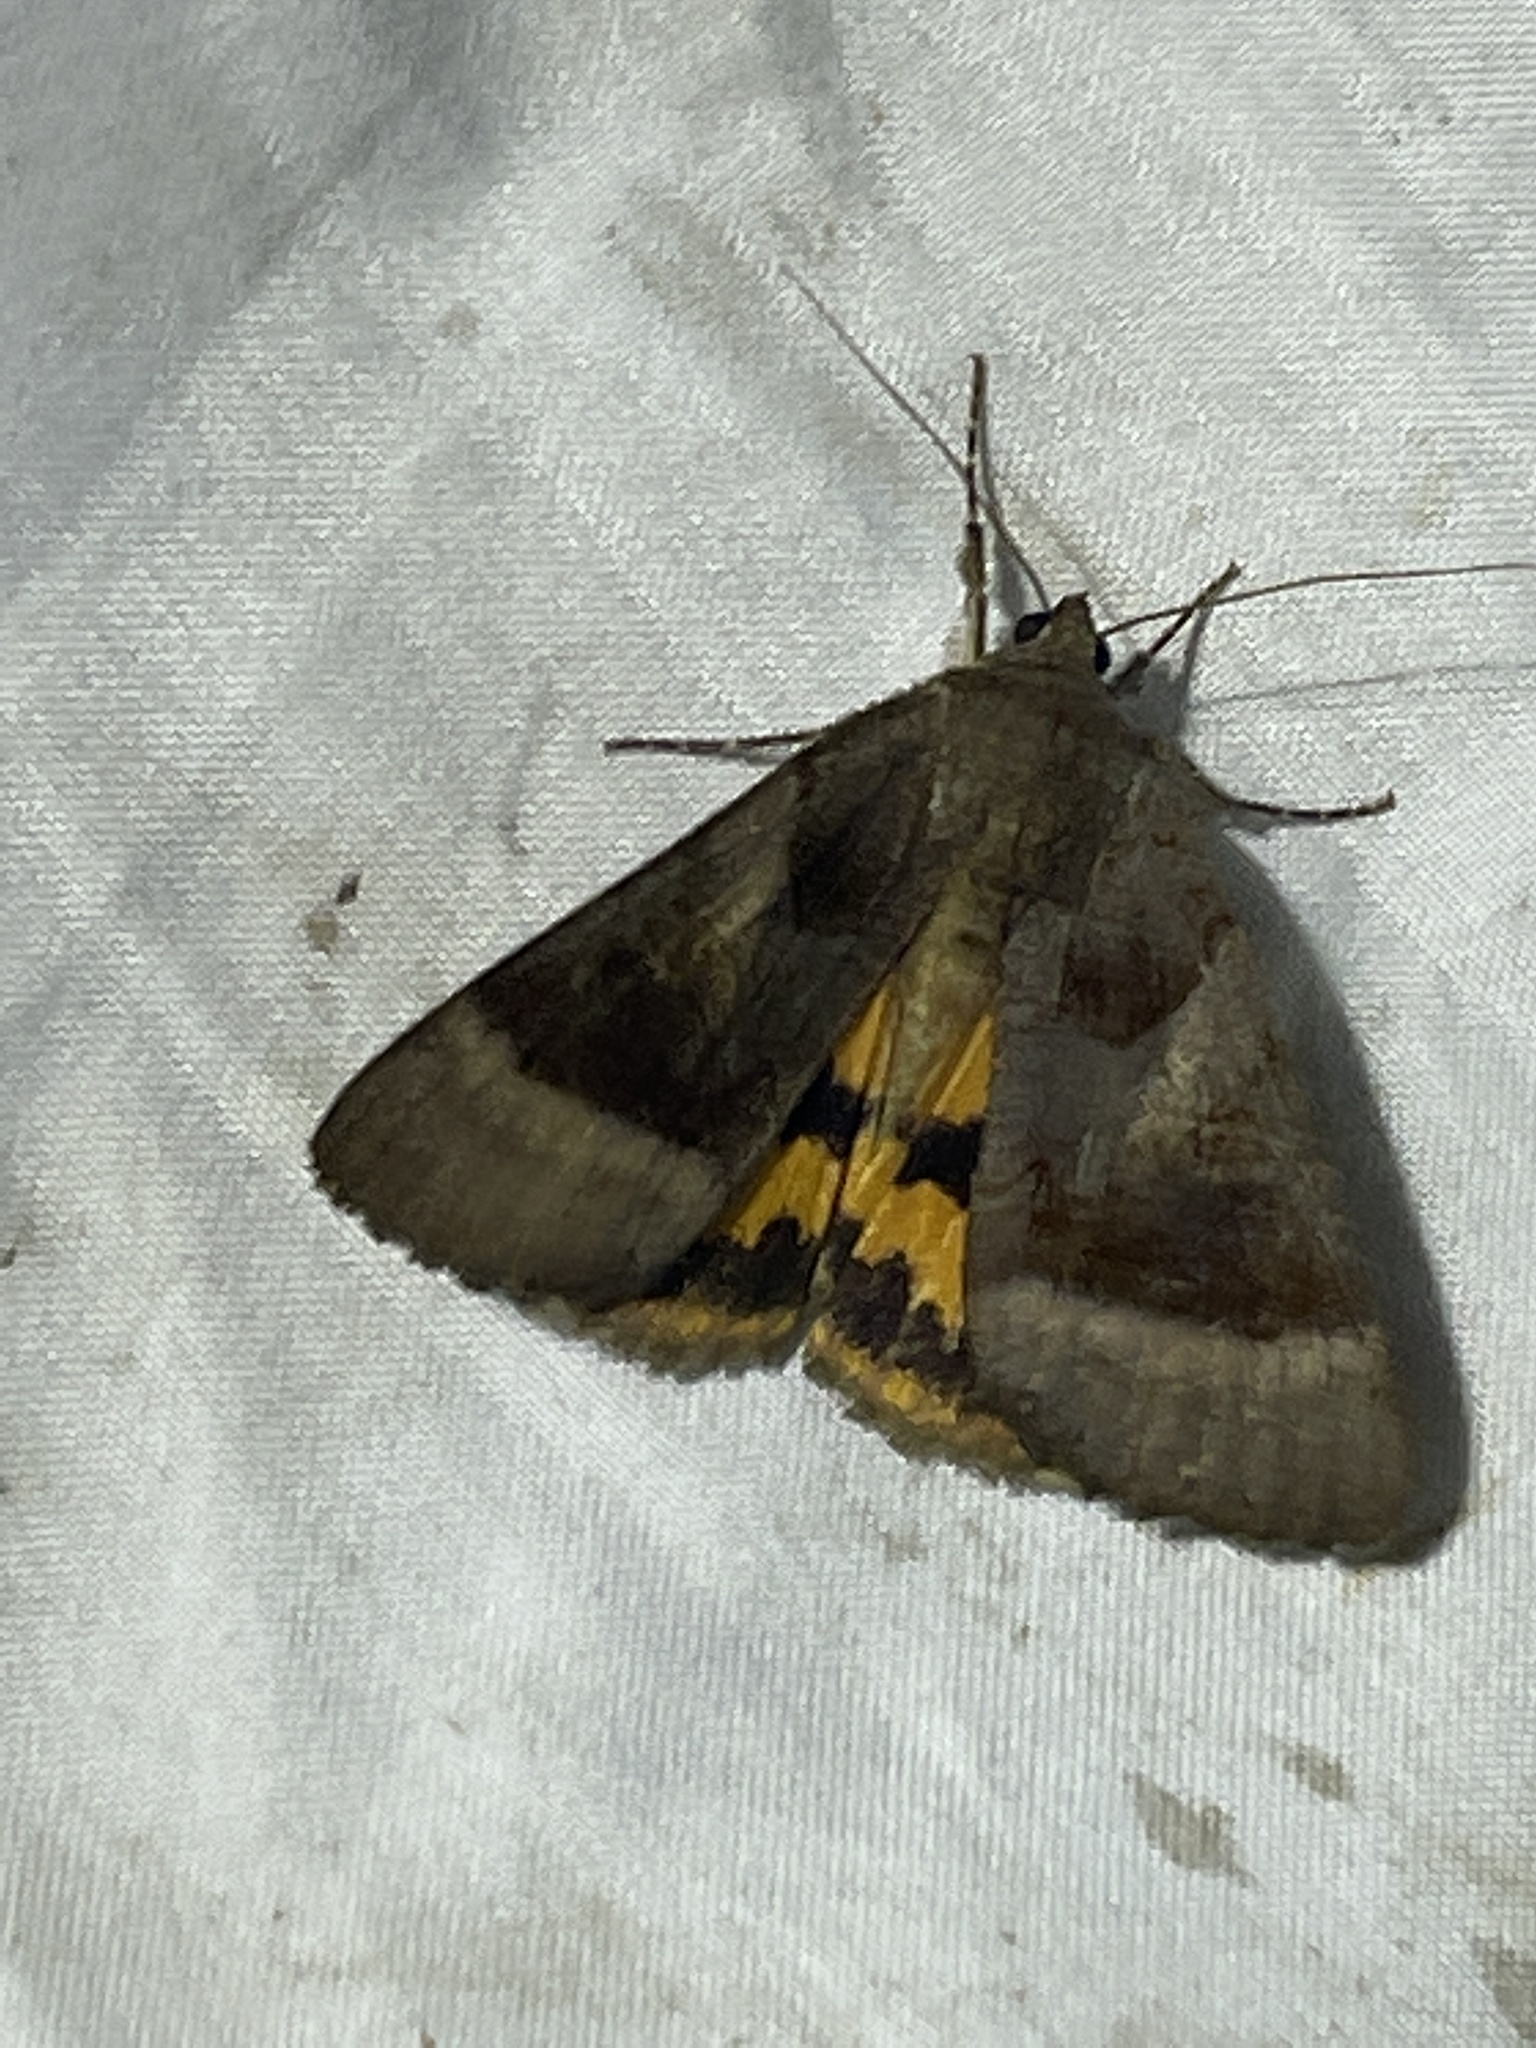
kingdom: Animalia
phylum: Arthropoda
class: Insecta
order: Lepidoptera
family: Erebidae
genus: Catocala
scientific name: Catocala badia
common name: Bay underwing
